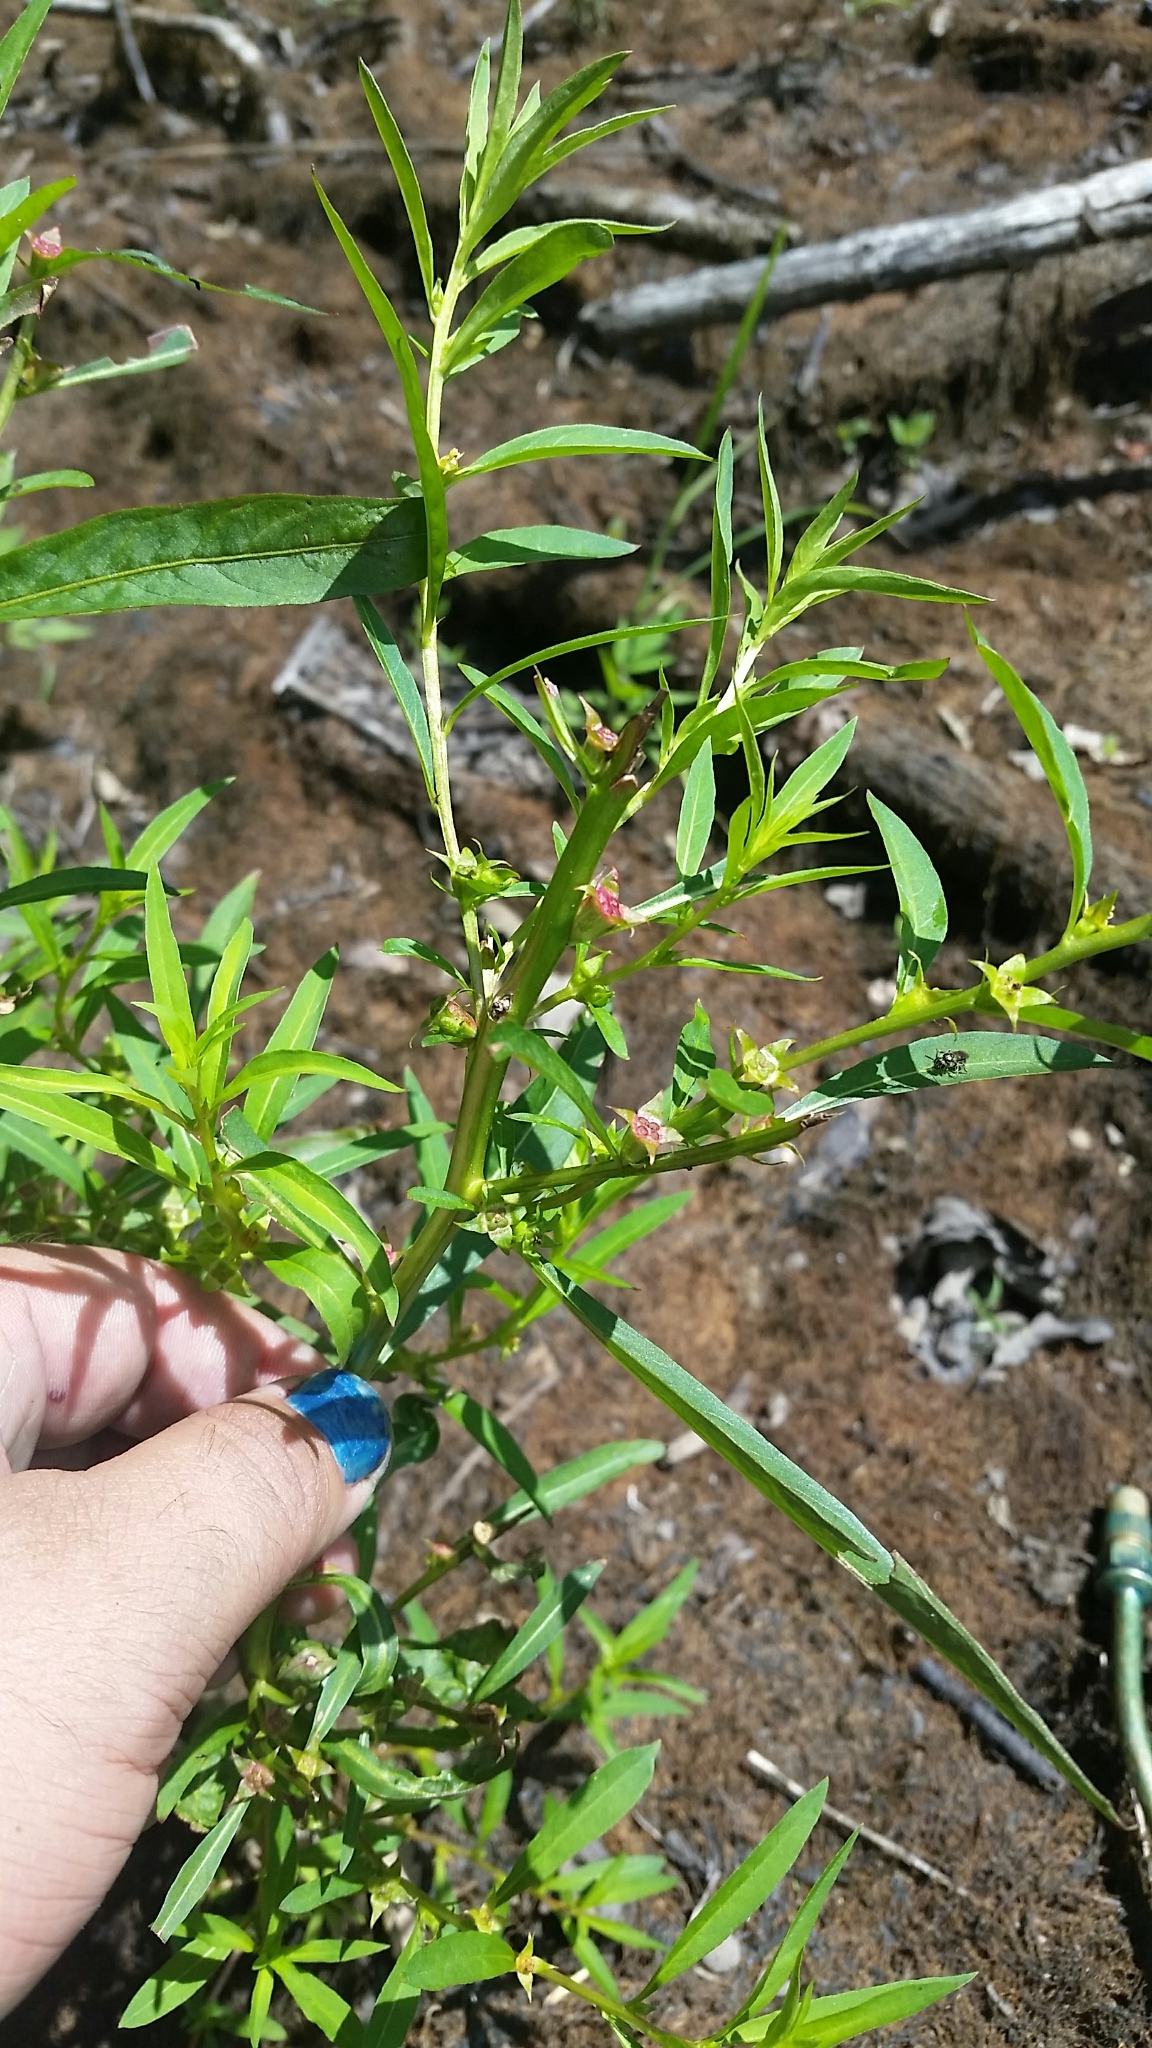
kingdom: Plantae
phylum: Tracheophyta
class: Magnoliopsida
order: Myrtales
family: Onagraceae
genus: Ludwigia
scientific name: Ludwigia polycarpa
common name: False loosestrife
